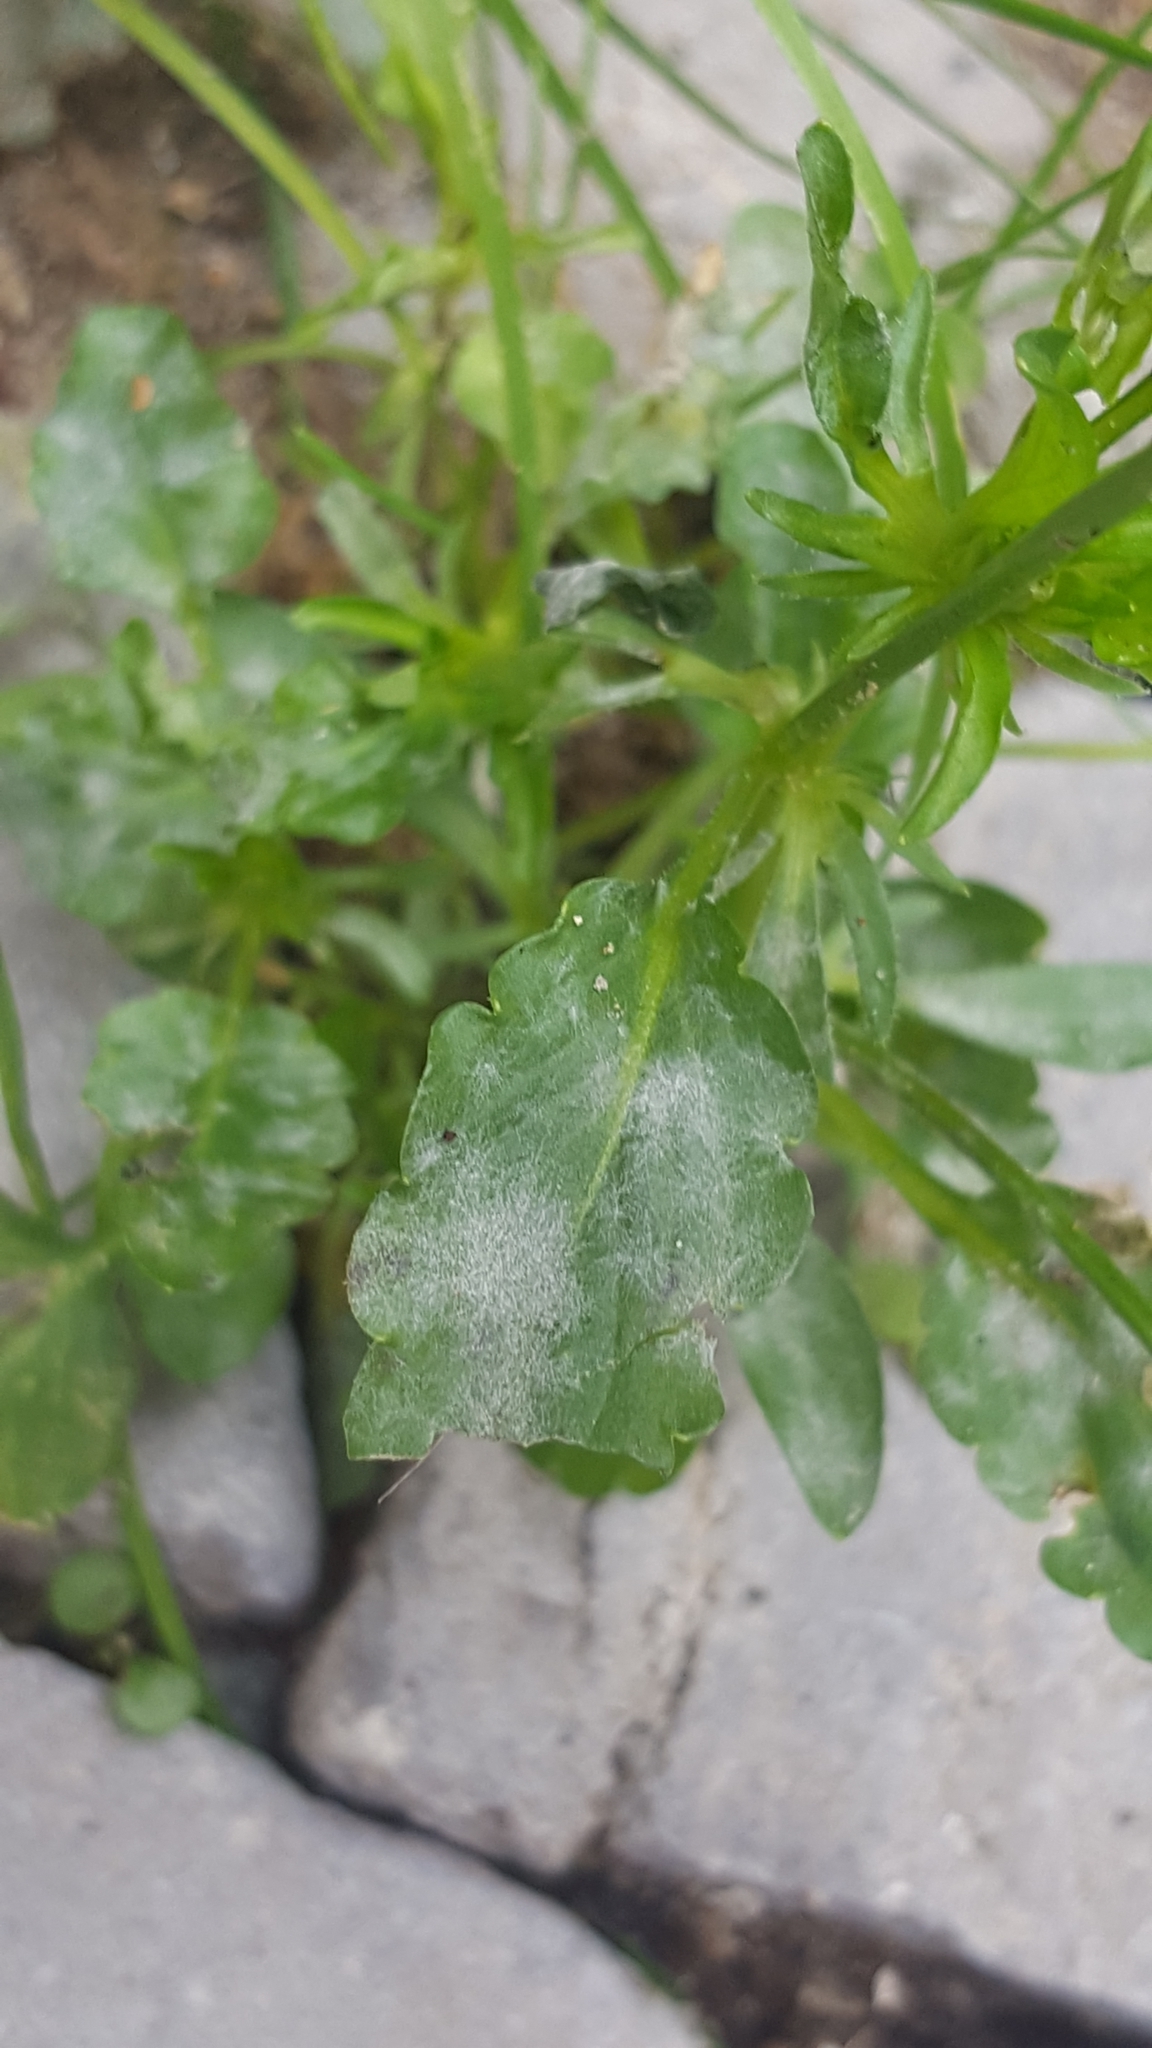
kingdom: Fungi
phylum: Ascomycota
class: Leotiomycetes
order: Helotiales
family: Erysiphaceae
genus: Golovinomyces
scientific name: Golovinomyces orontii
